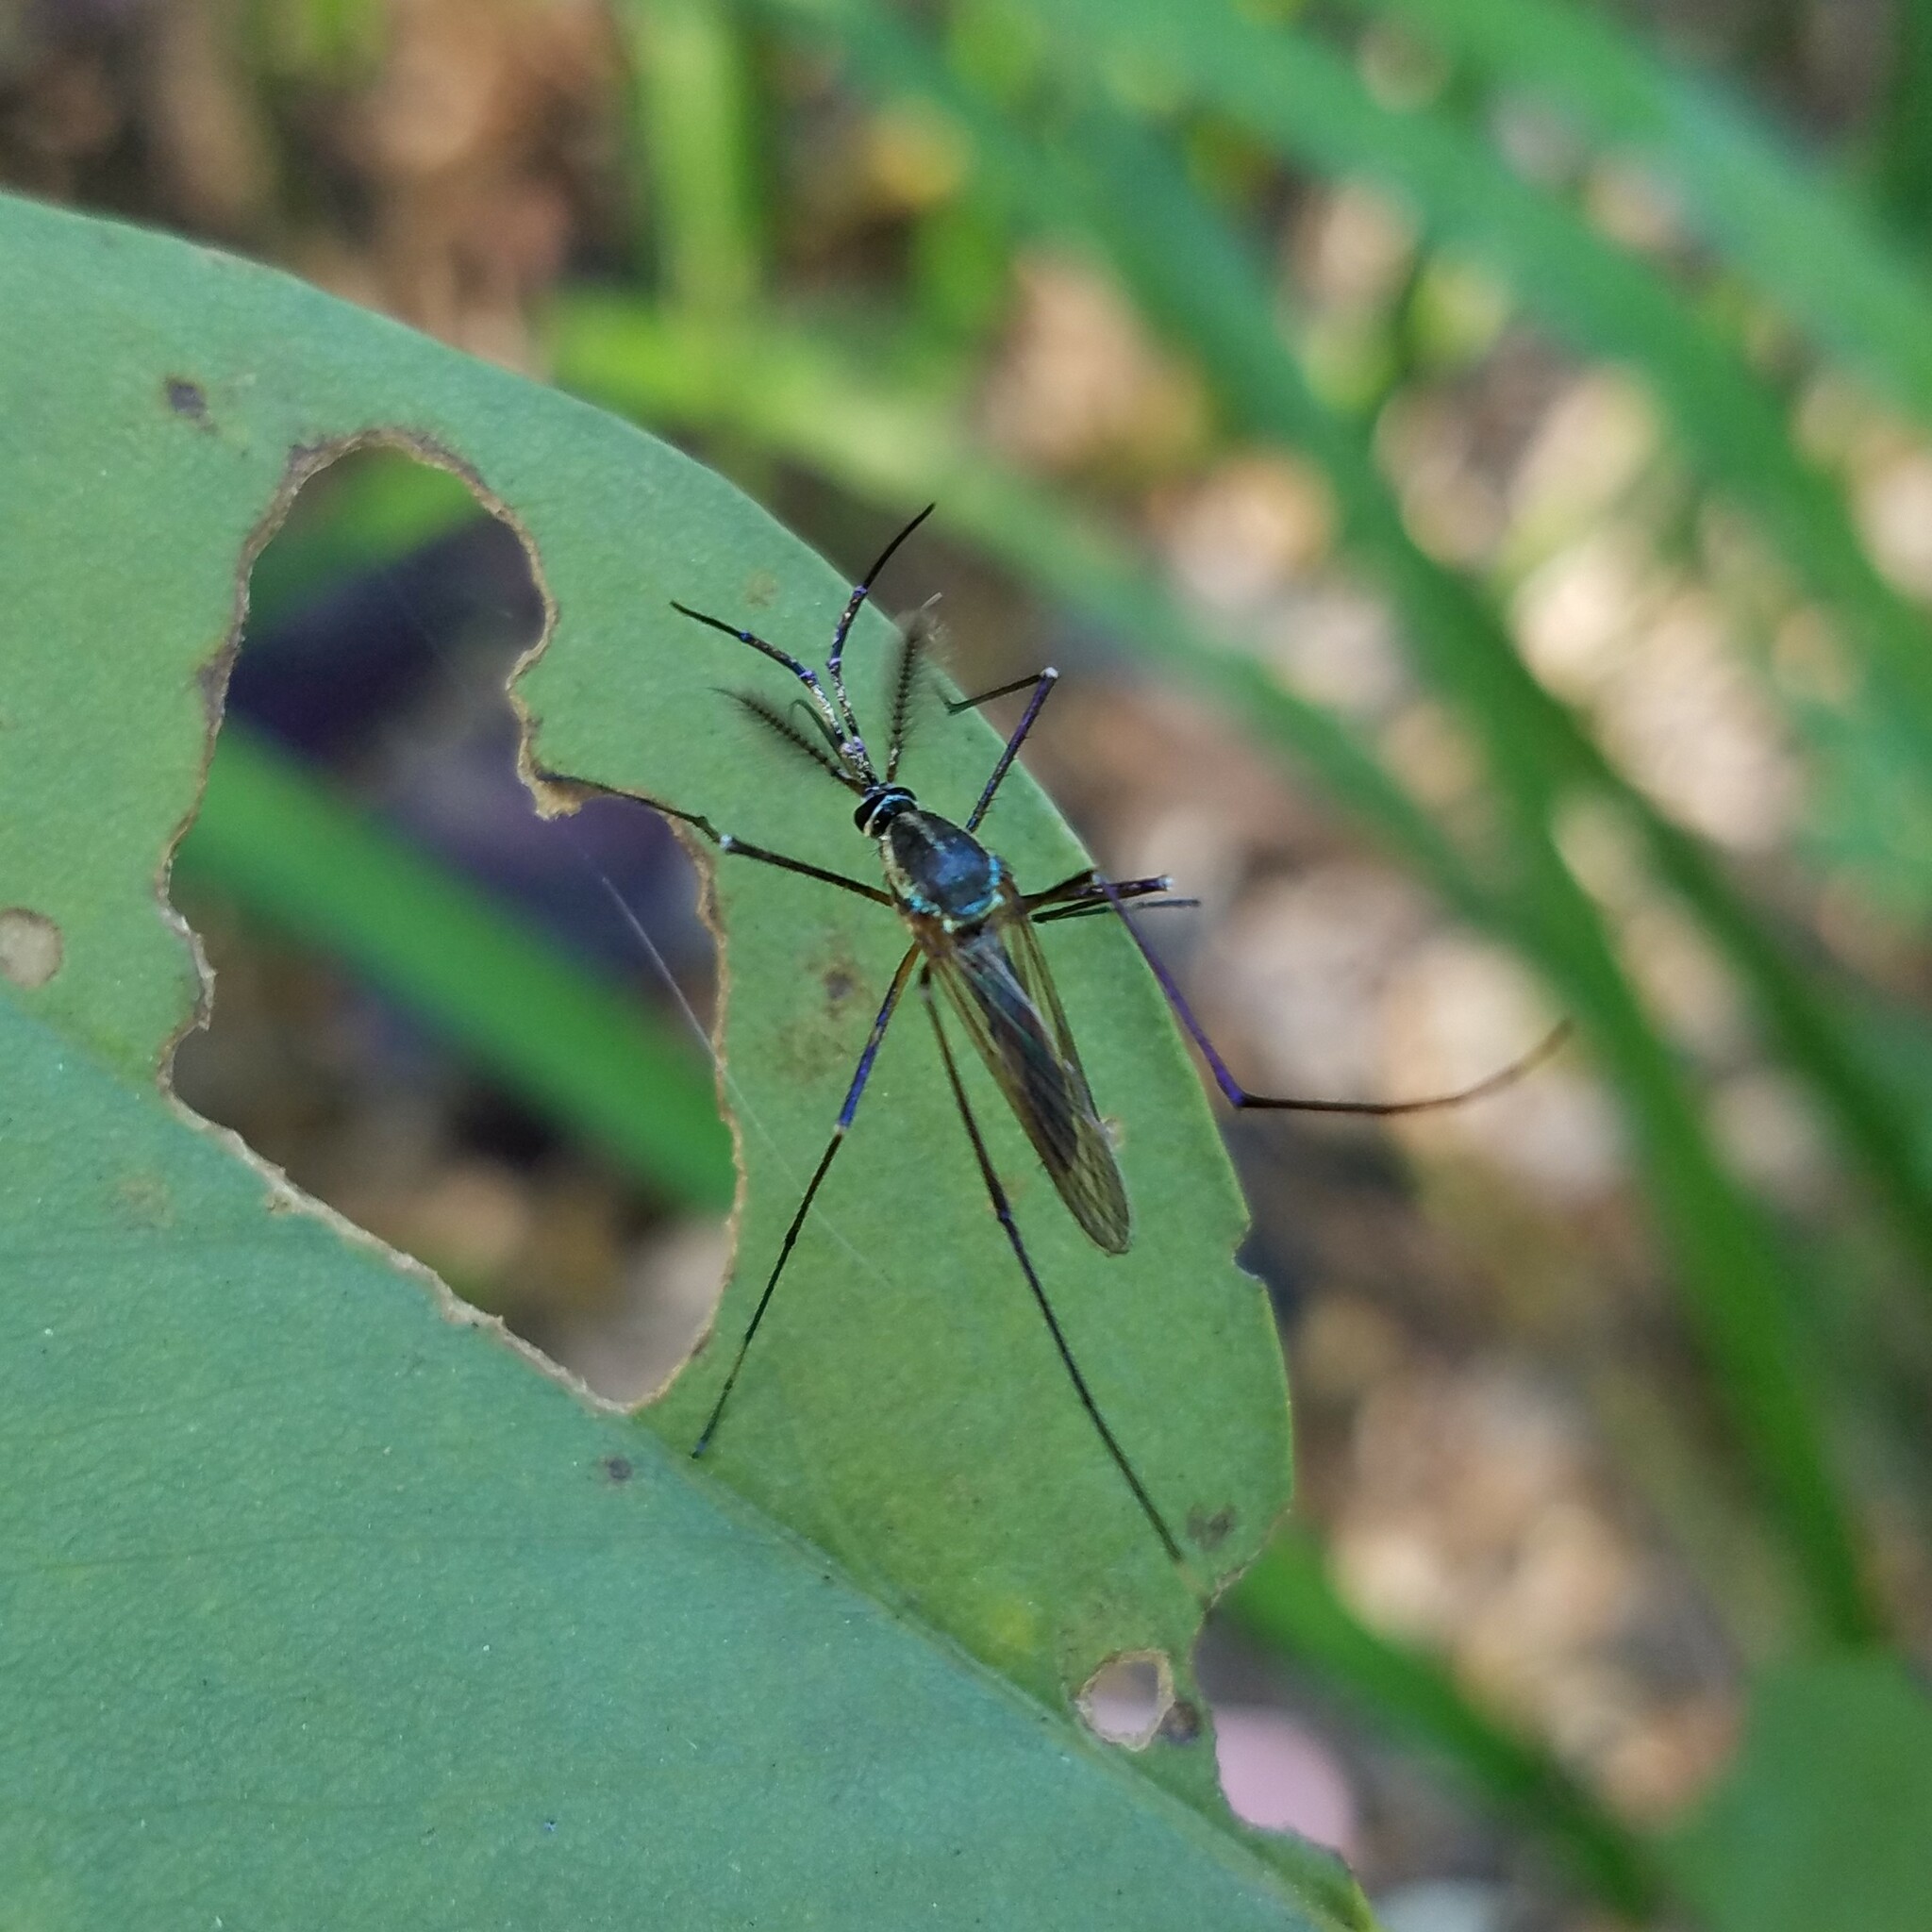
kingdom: Animalia
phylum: Arthropoda
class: Insecta
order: Diptera
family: Culicidae
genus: Toxorhynchites
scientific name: Toxorhynchites rutilus
